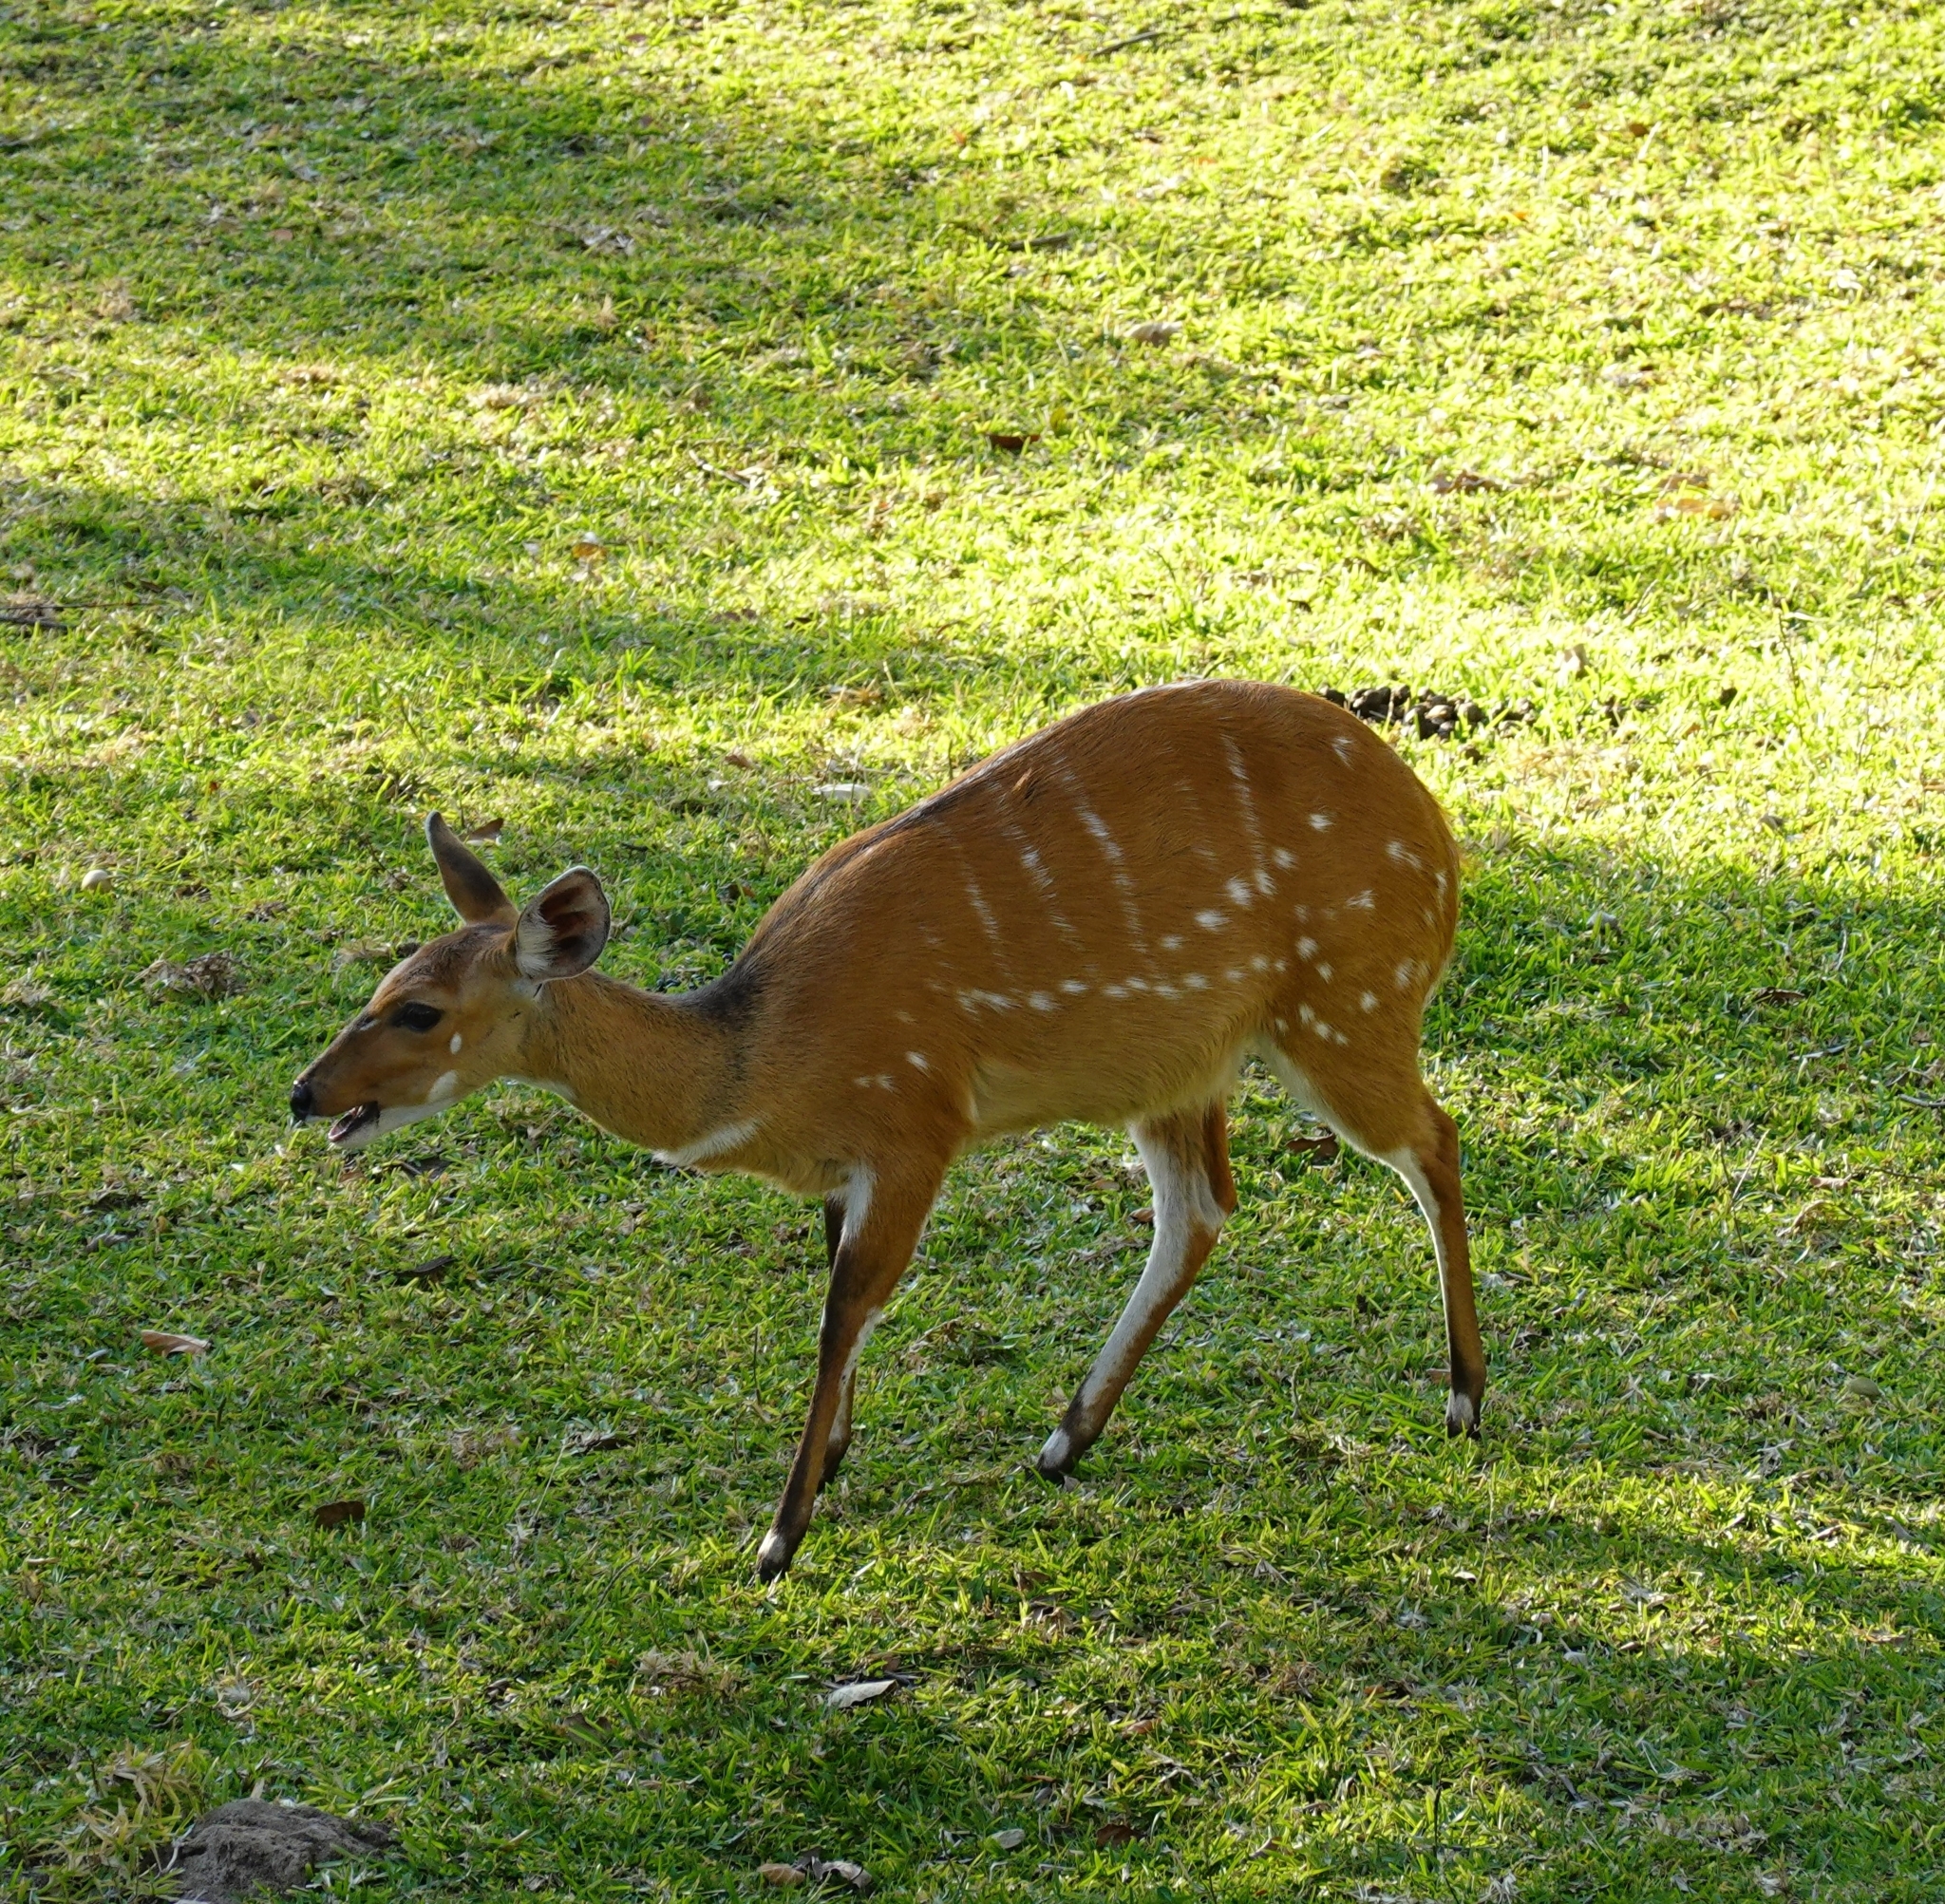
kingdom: Animalia
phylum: Chordata
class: Mammalia
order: Artiodactyla
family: Bovidae
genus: Tragelaphus
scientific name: Tragelaphus scriptus
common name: Bushbuck
